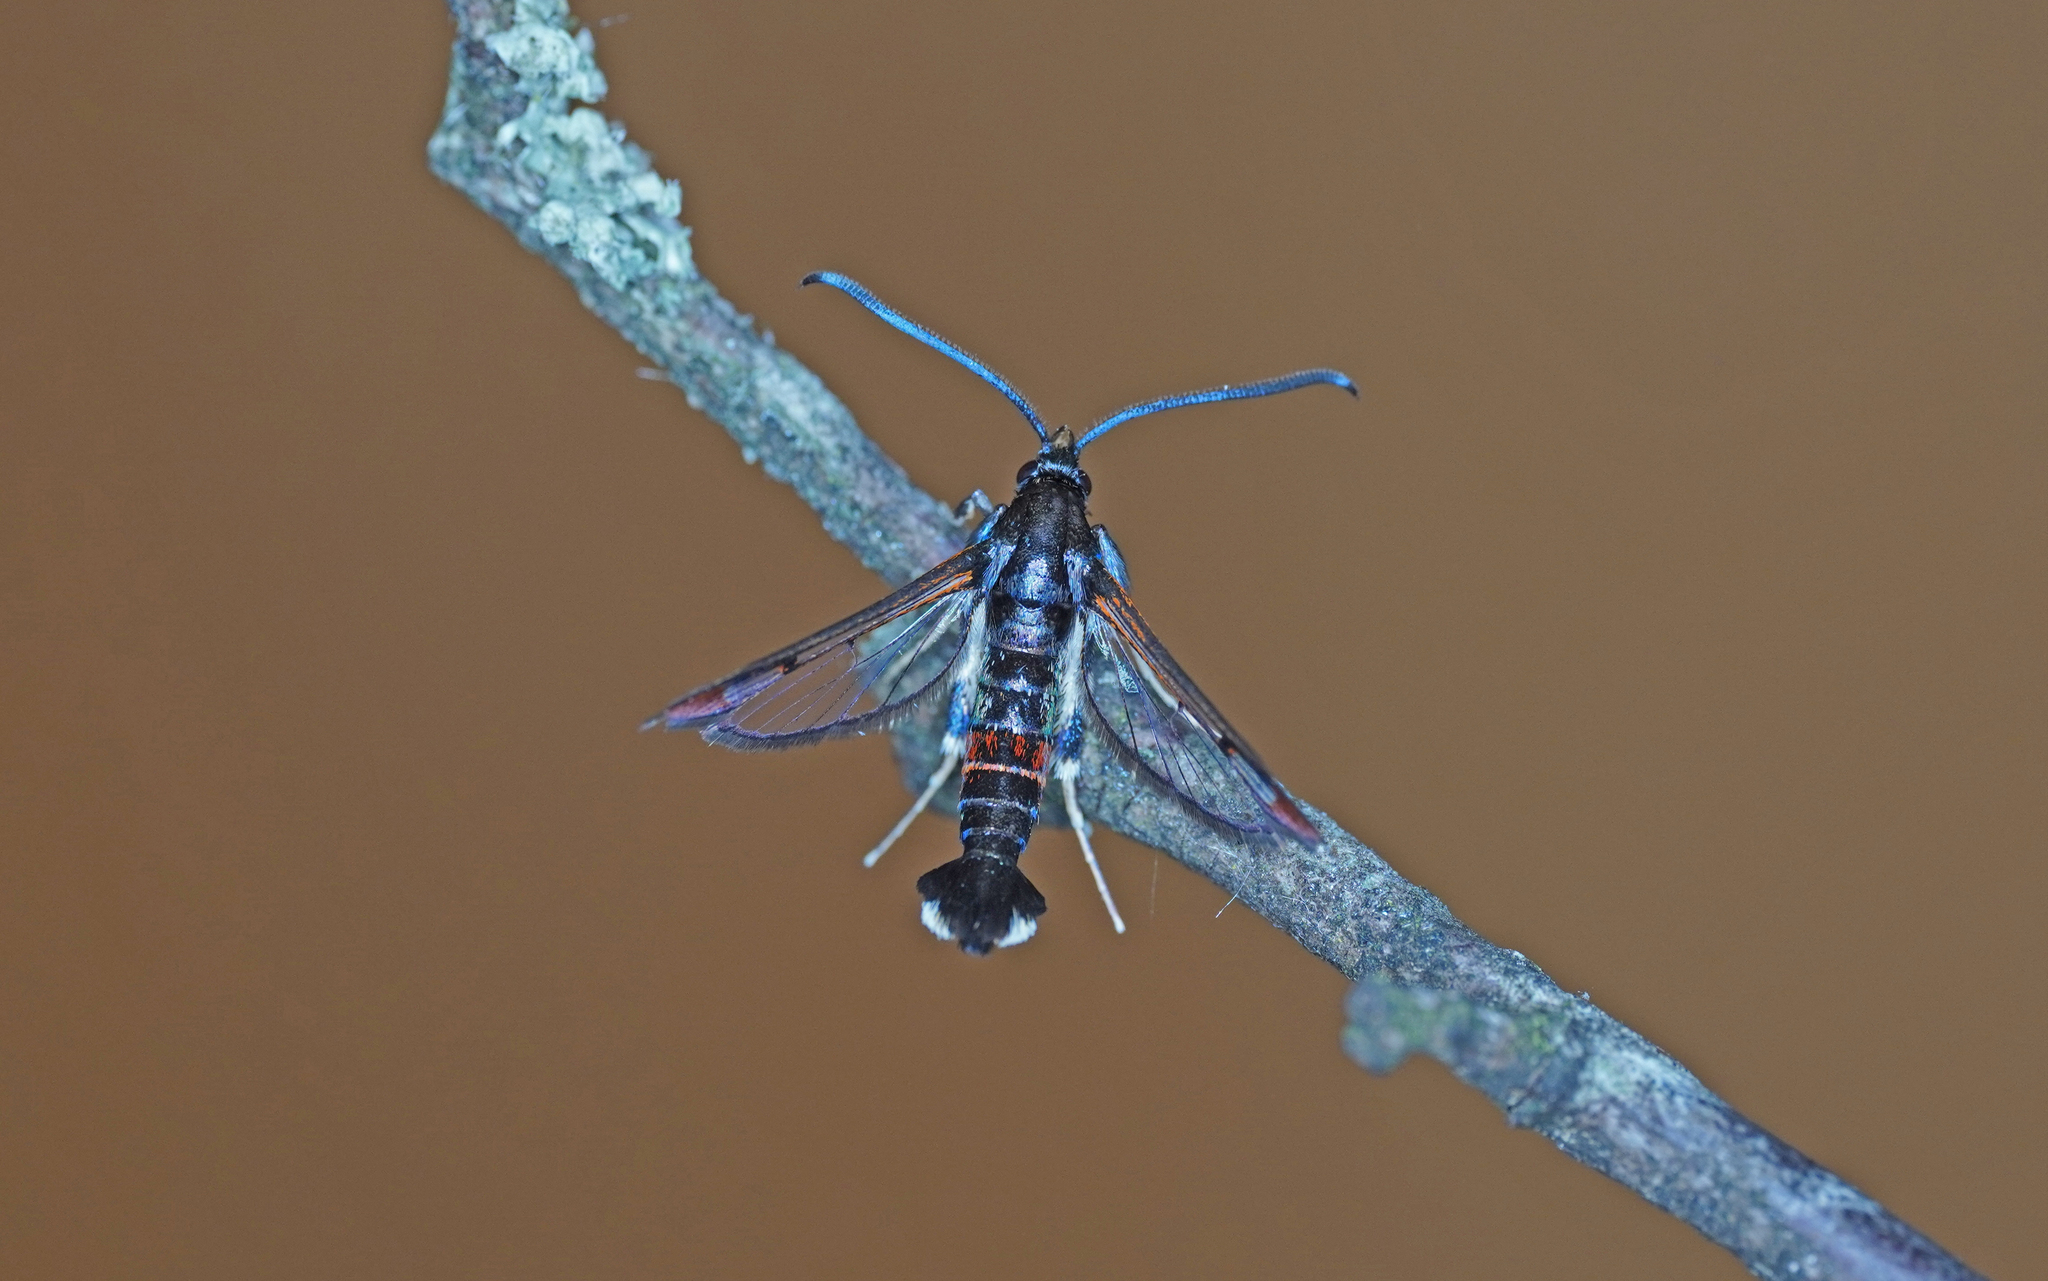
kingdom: Animalia
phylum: Arthropoda
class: Insecta
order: Lepidoptera
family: Sesiidae
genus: Synanthedon
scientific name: Synanthedon formicaeformis
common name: Red-tipped clearwing
